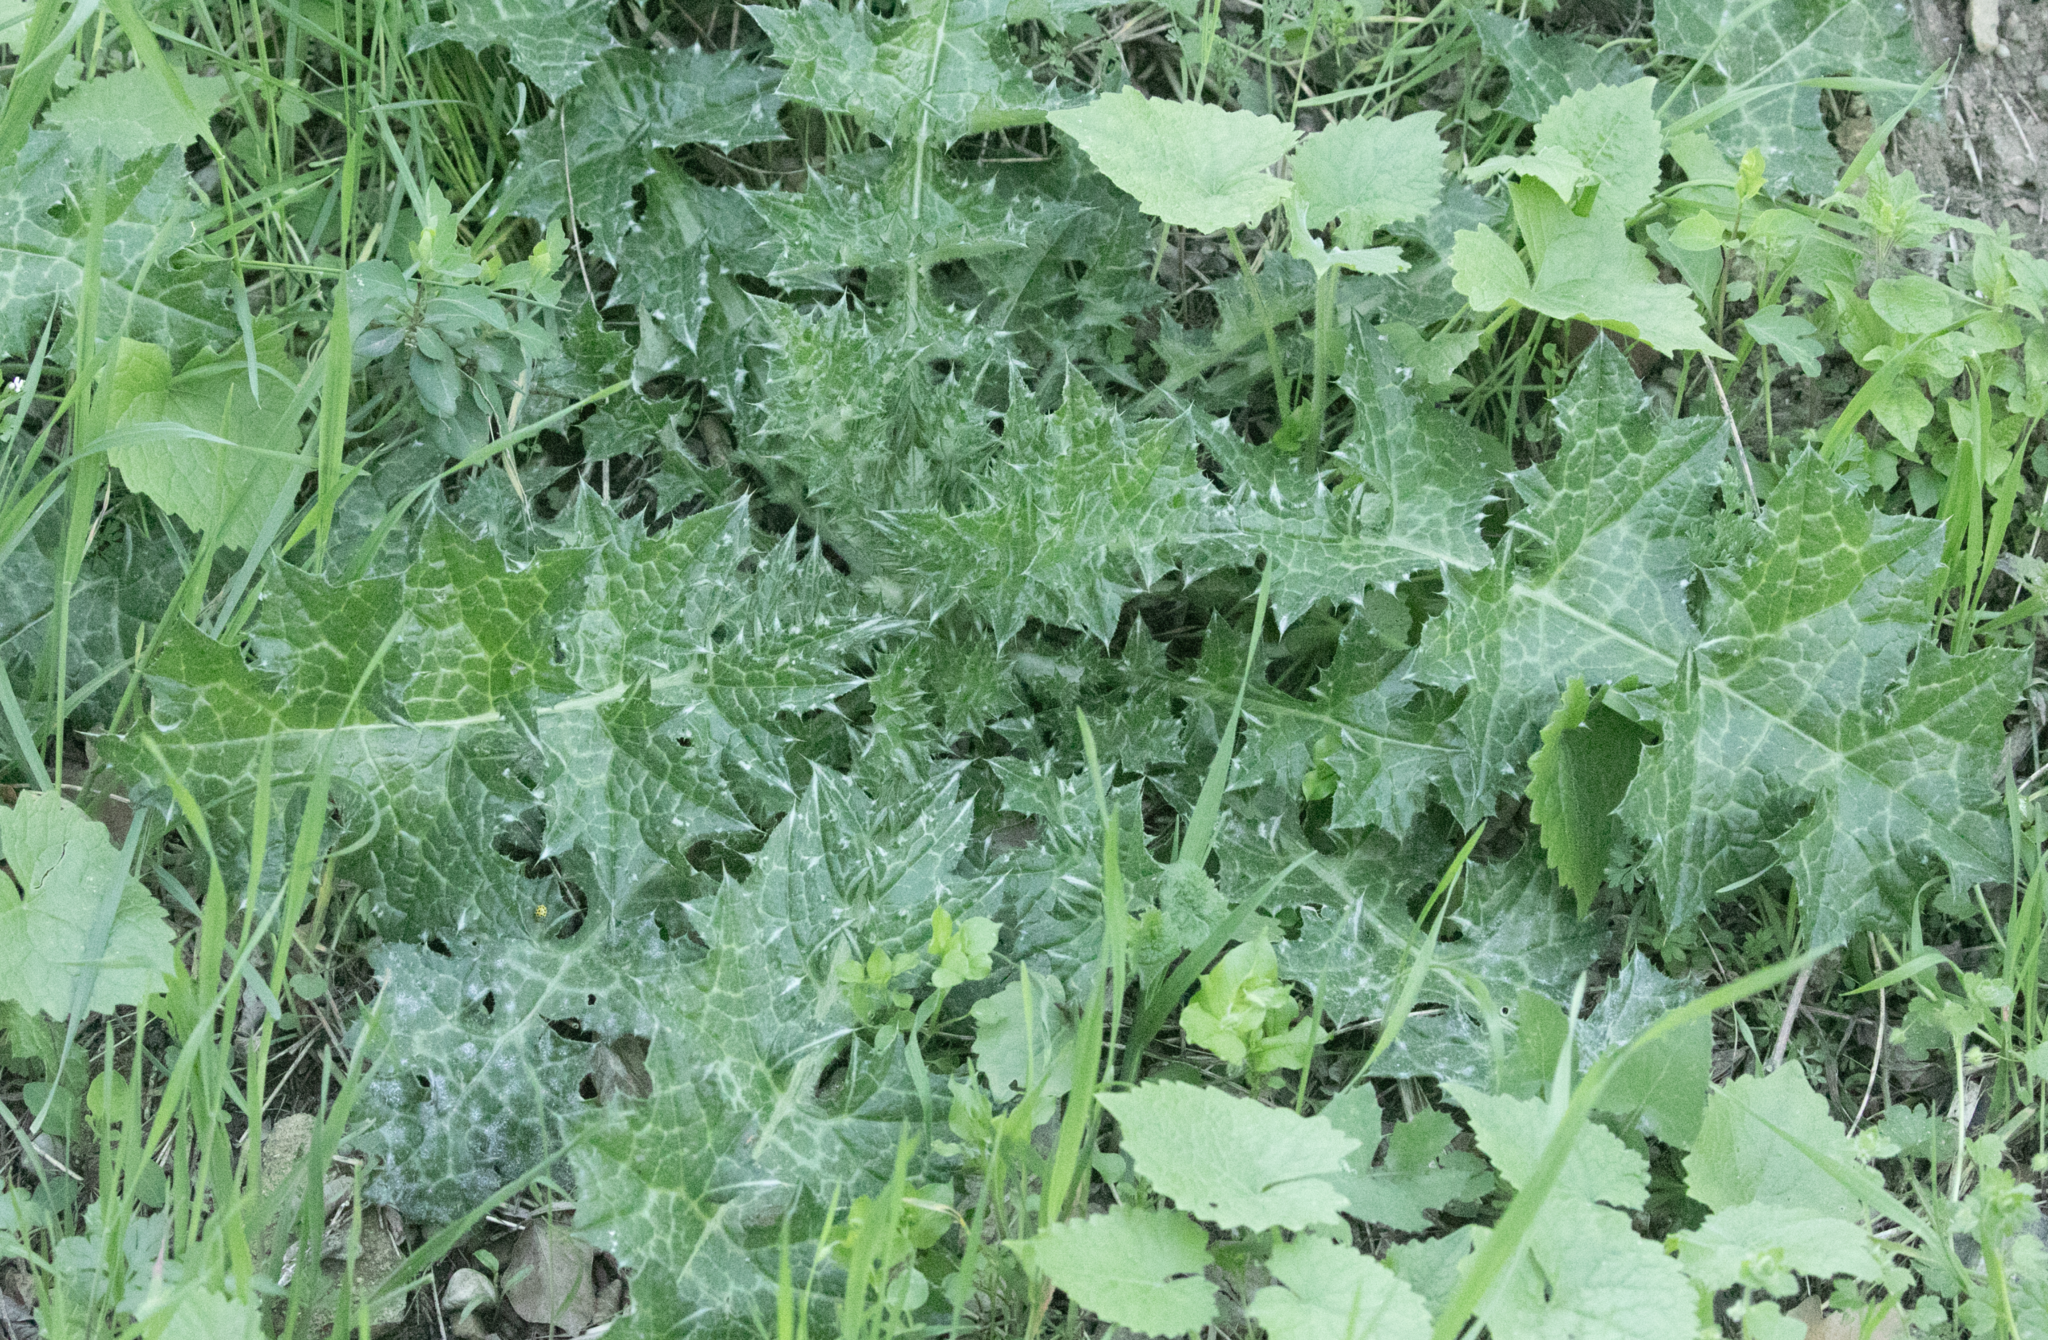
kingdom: Plantae
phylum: Tracheophyta
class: Magnoliopsida
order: Asterales
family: Asteraceae
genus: Carduus
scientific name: Carduus pycnocephalus
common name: Plymouth thistle
